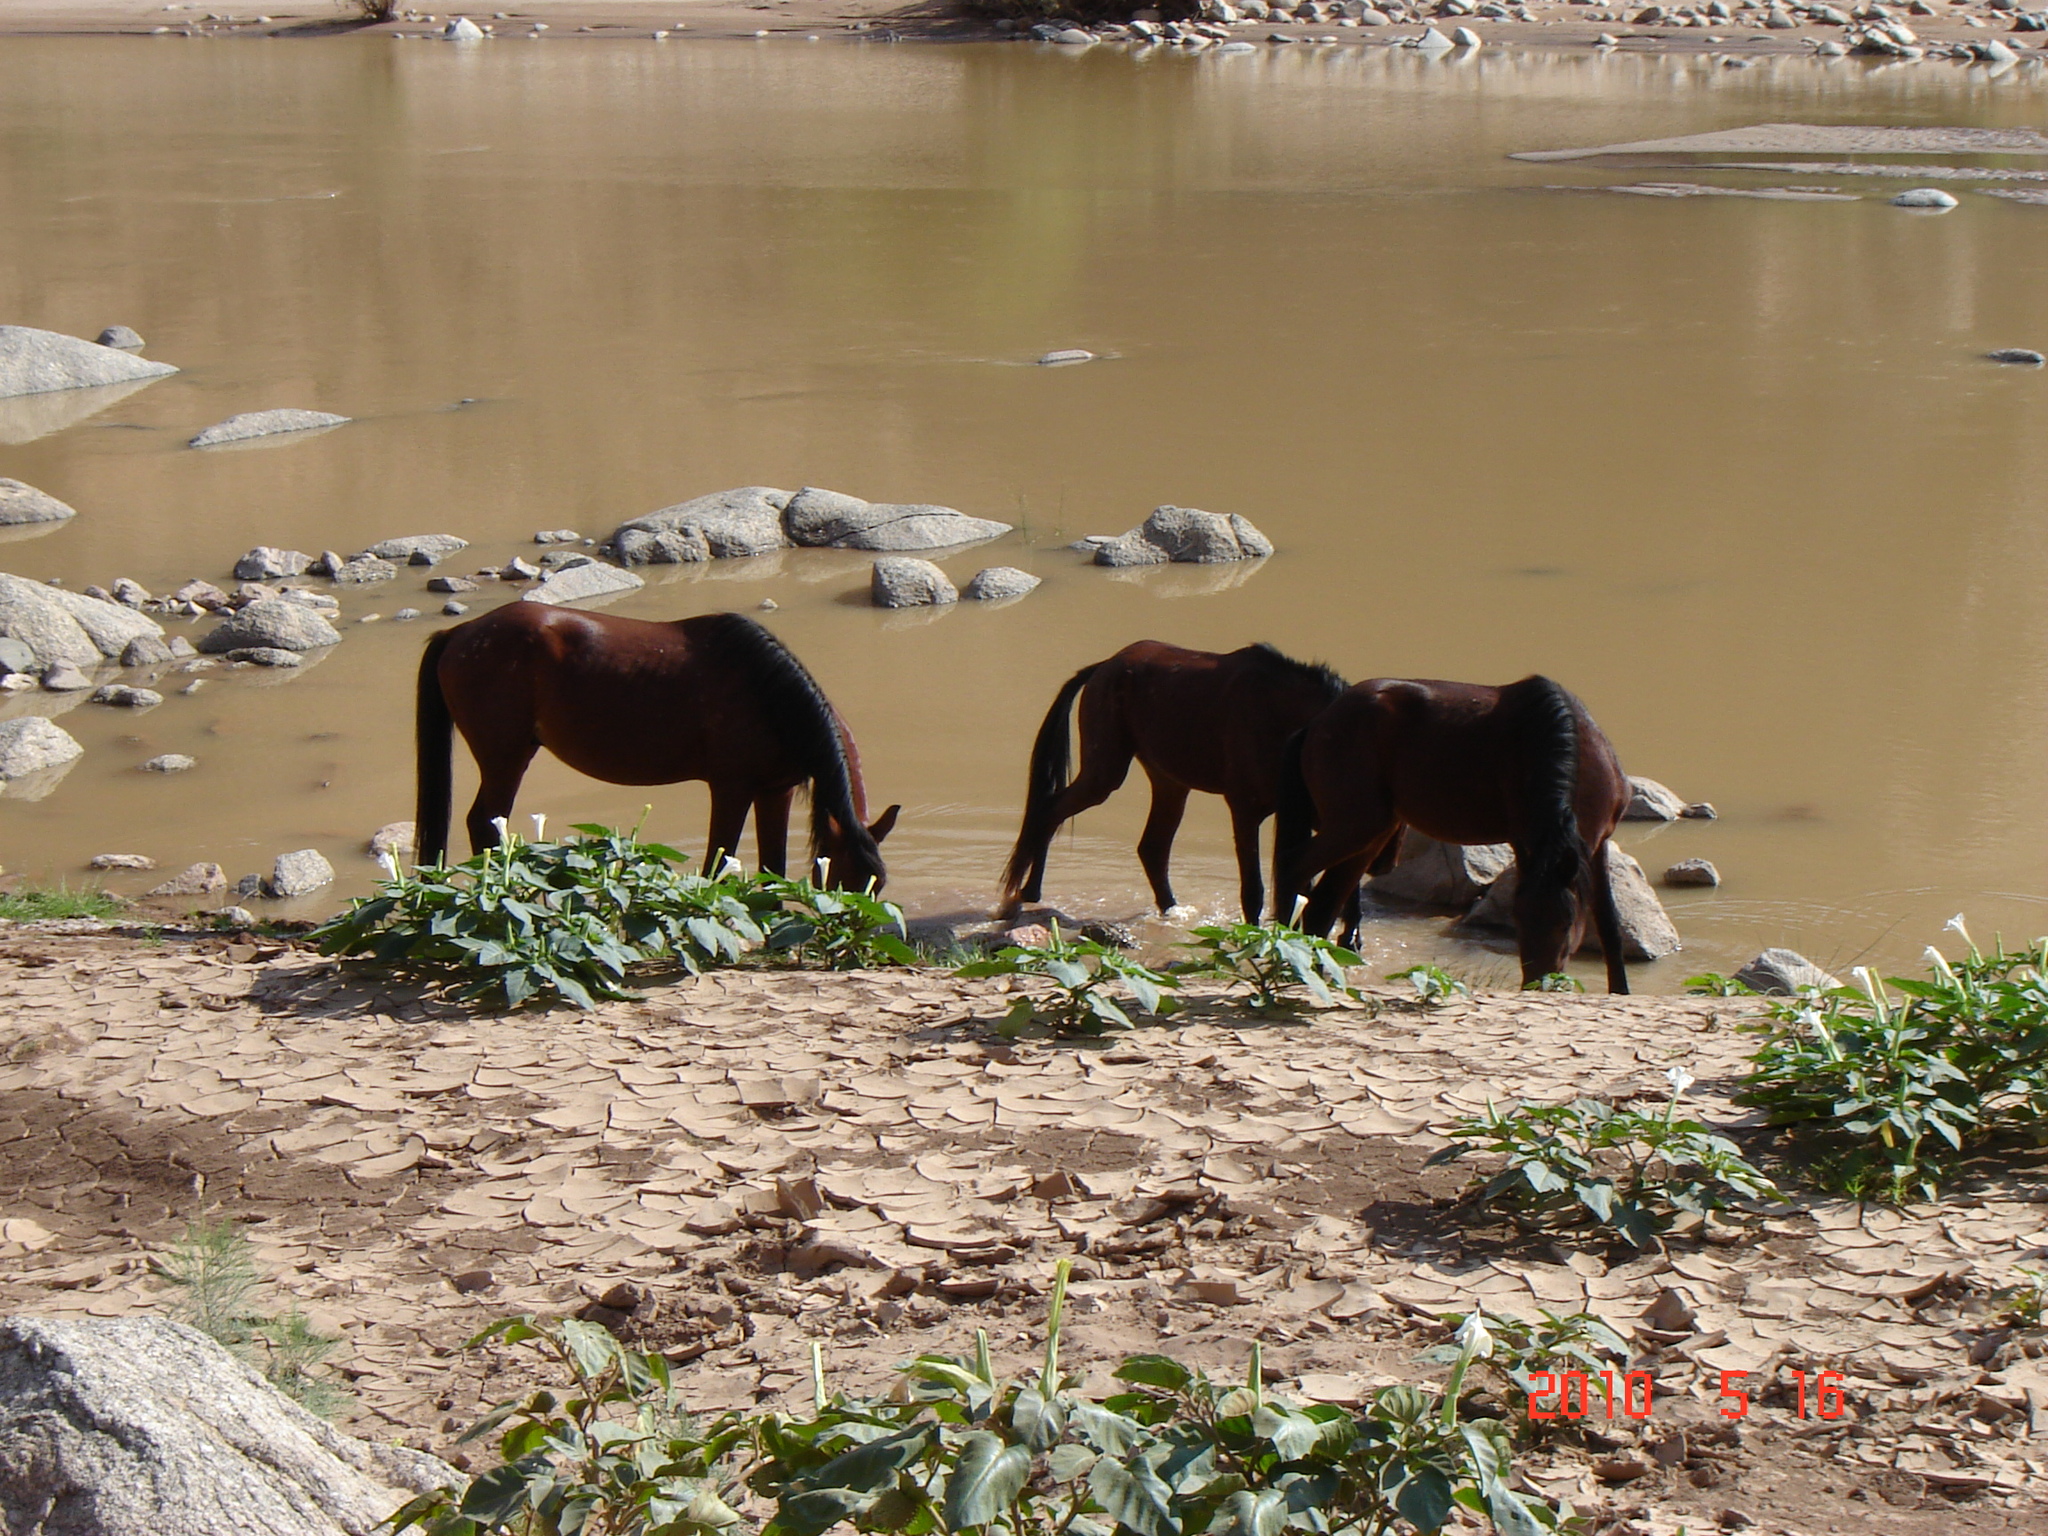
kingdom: Animalia
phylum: Chordata
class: Mammalia
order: Perissodactyla
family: Equidae
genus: Equus
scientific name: Equus caballus
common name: Horse
